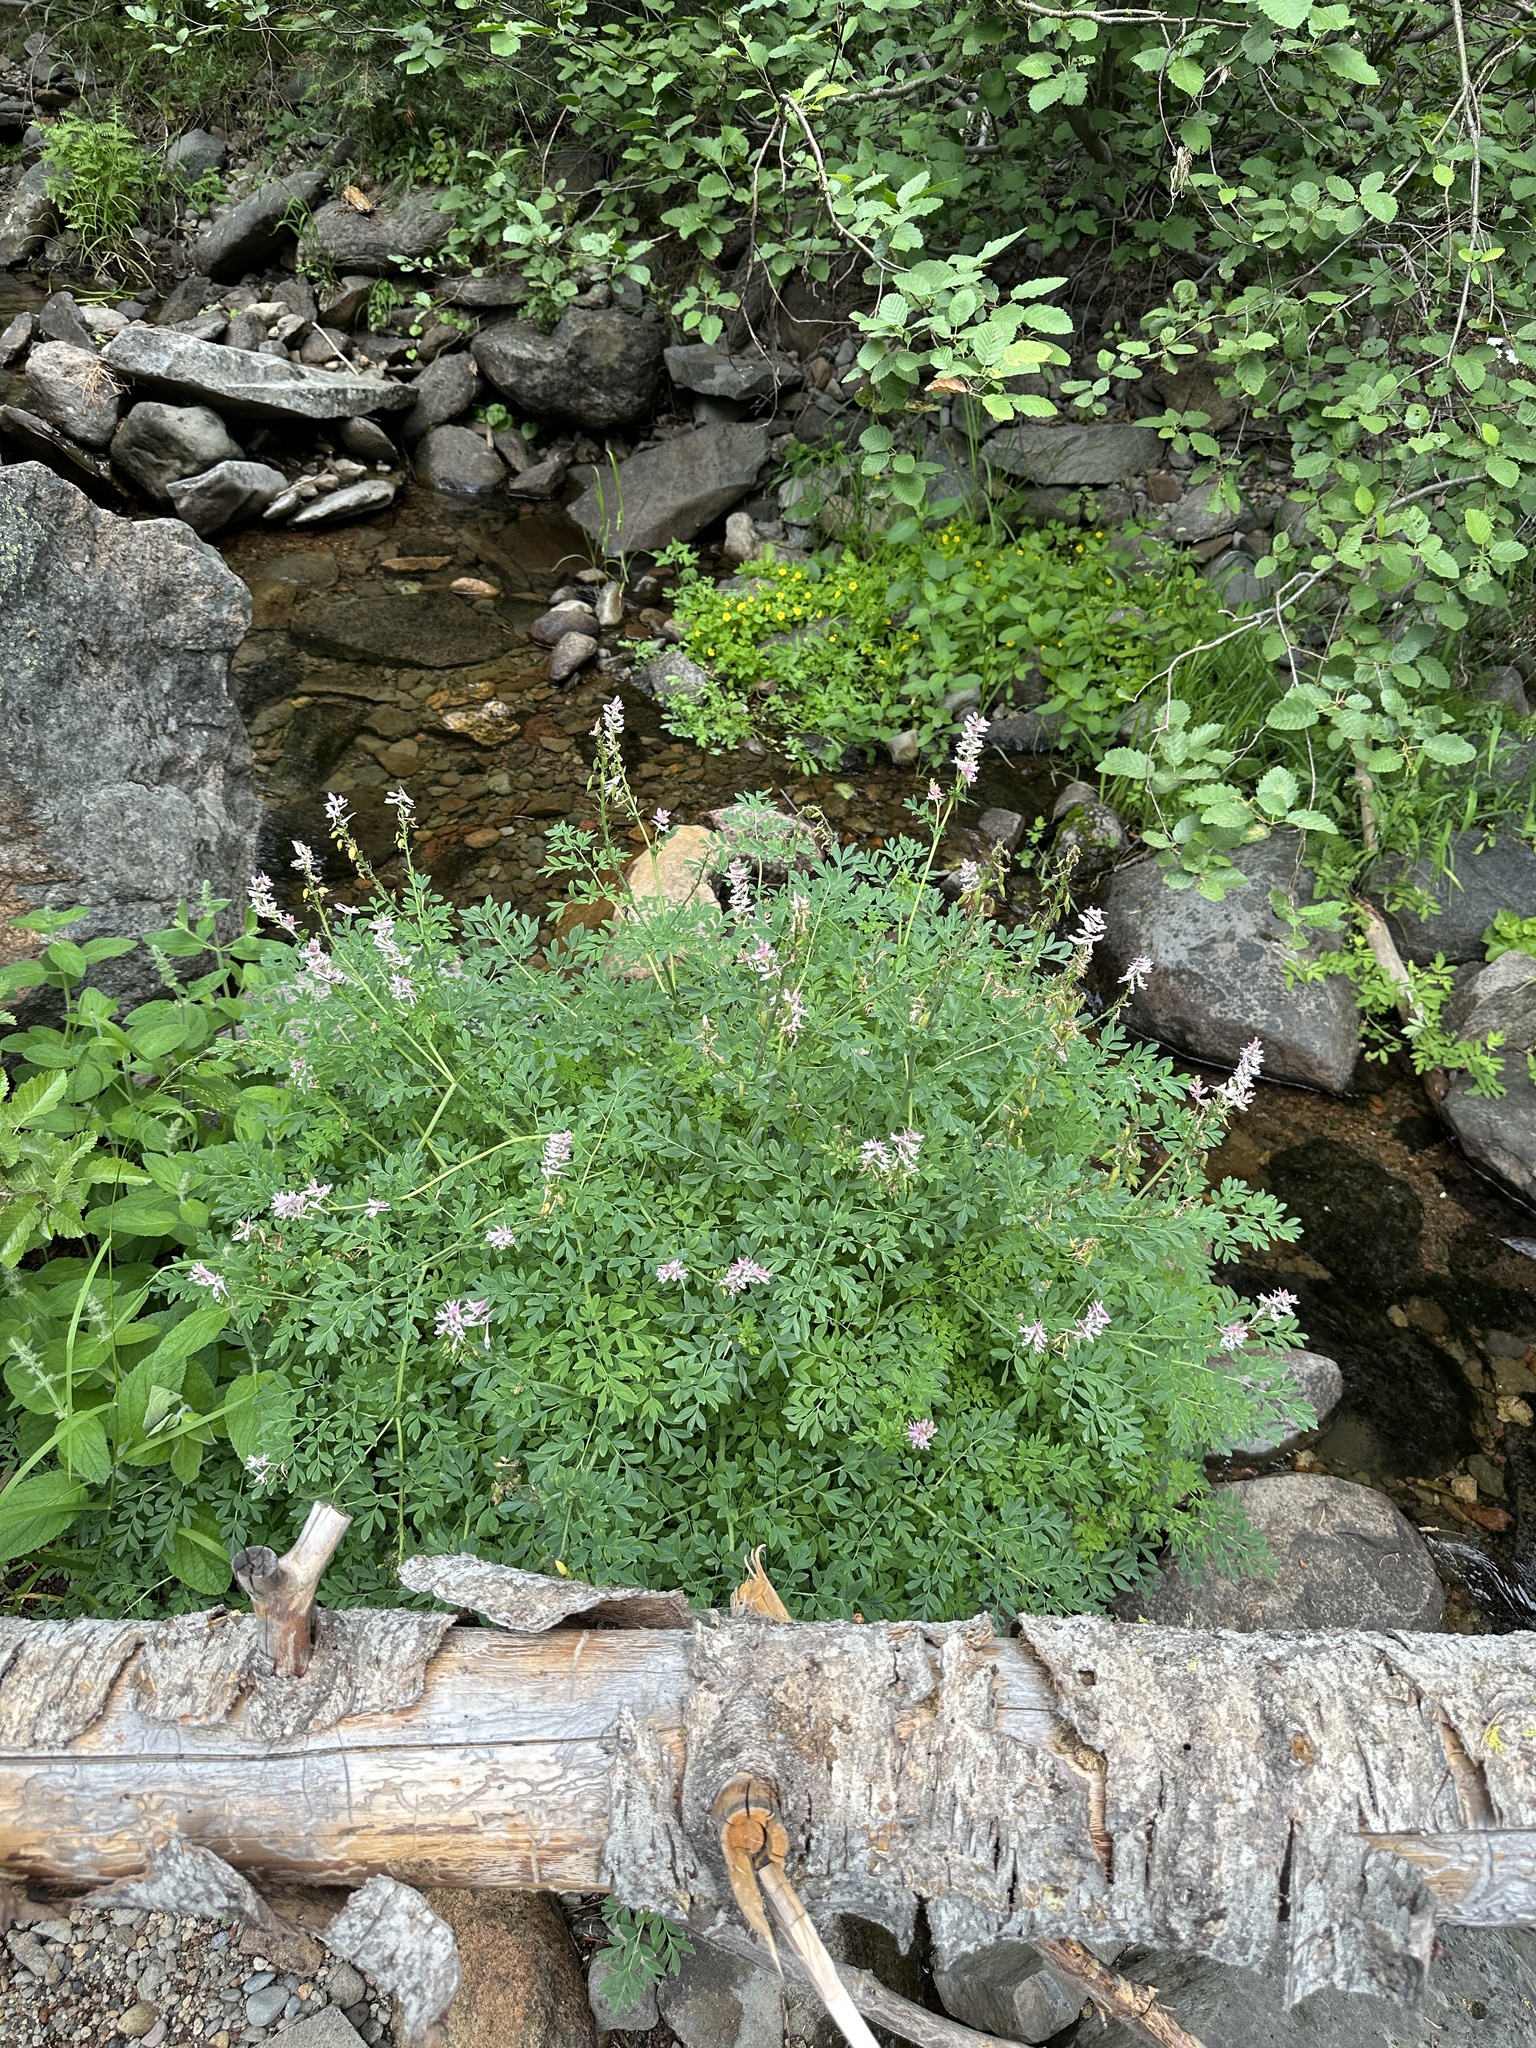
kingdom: Plantae
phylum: Tracheophyta
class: Magnoliopsida
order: Ranunculales
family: Papaveraceae
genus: Corydalis
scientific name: Corydalis caseana
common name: Fitweed
